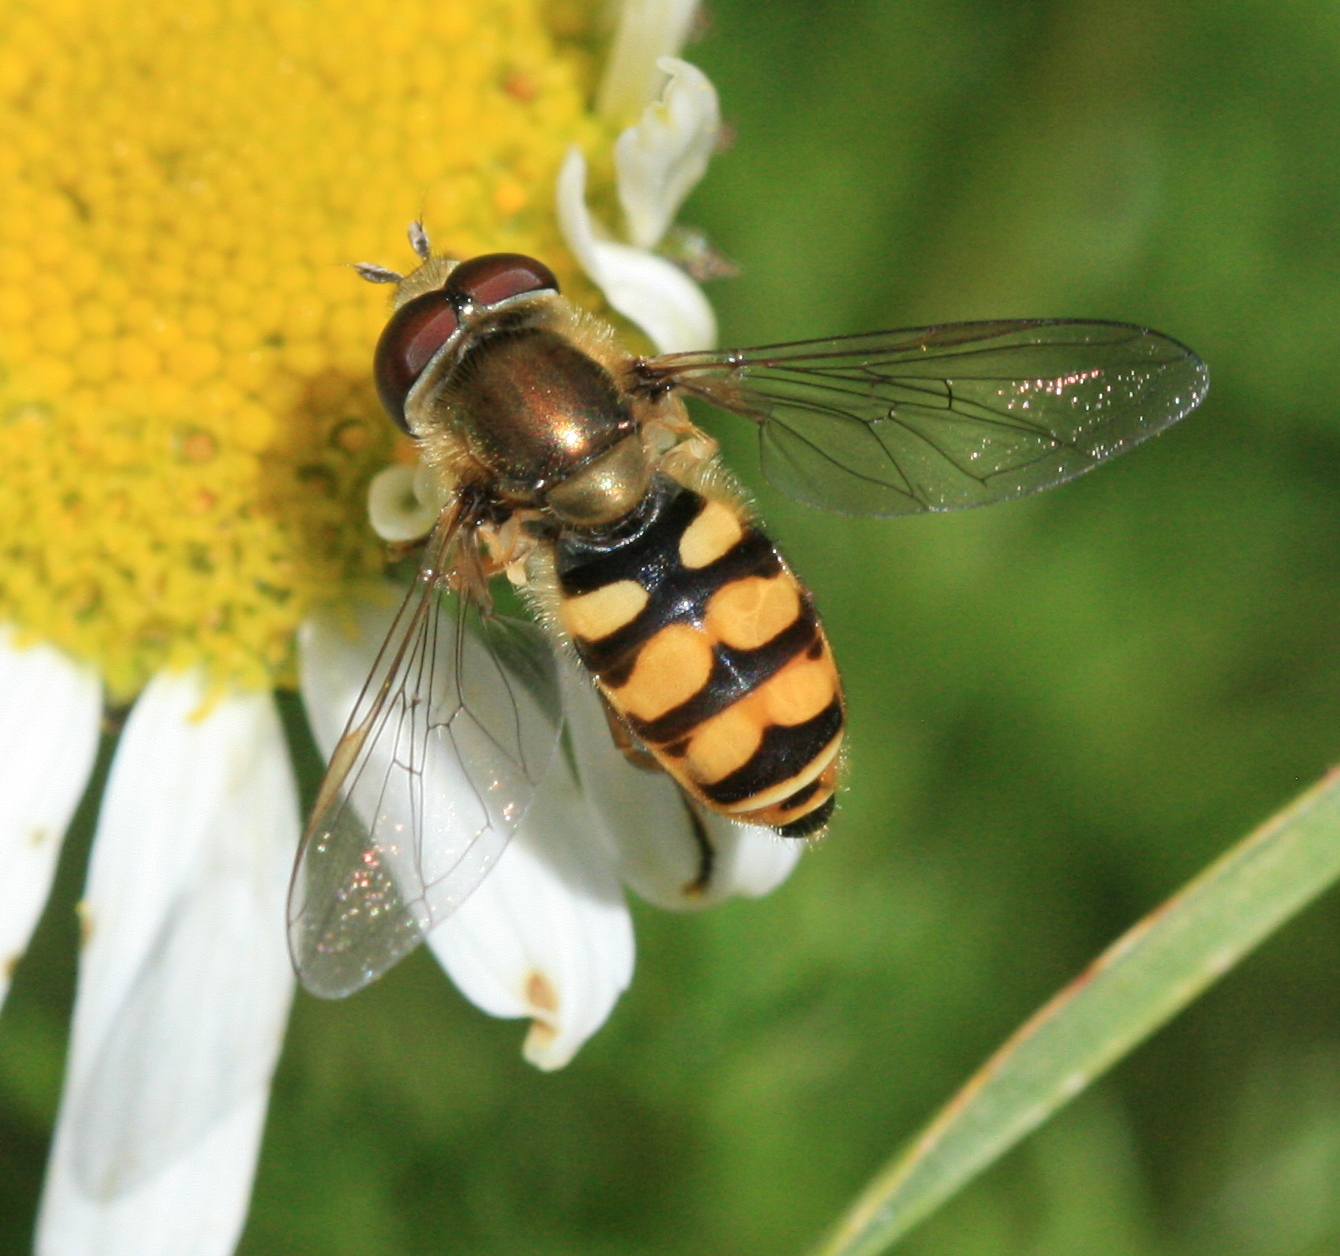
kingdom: Animalia
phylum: Arthropoda
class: Insecta
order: Diptera
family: Syrphidae
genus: Eupeodes
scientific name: Eupeodes corollae
